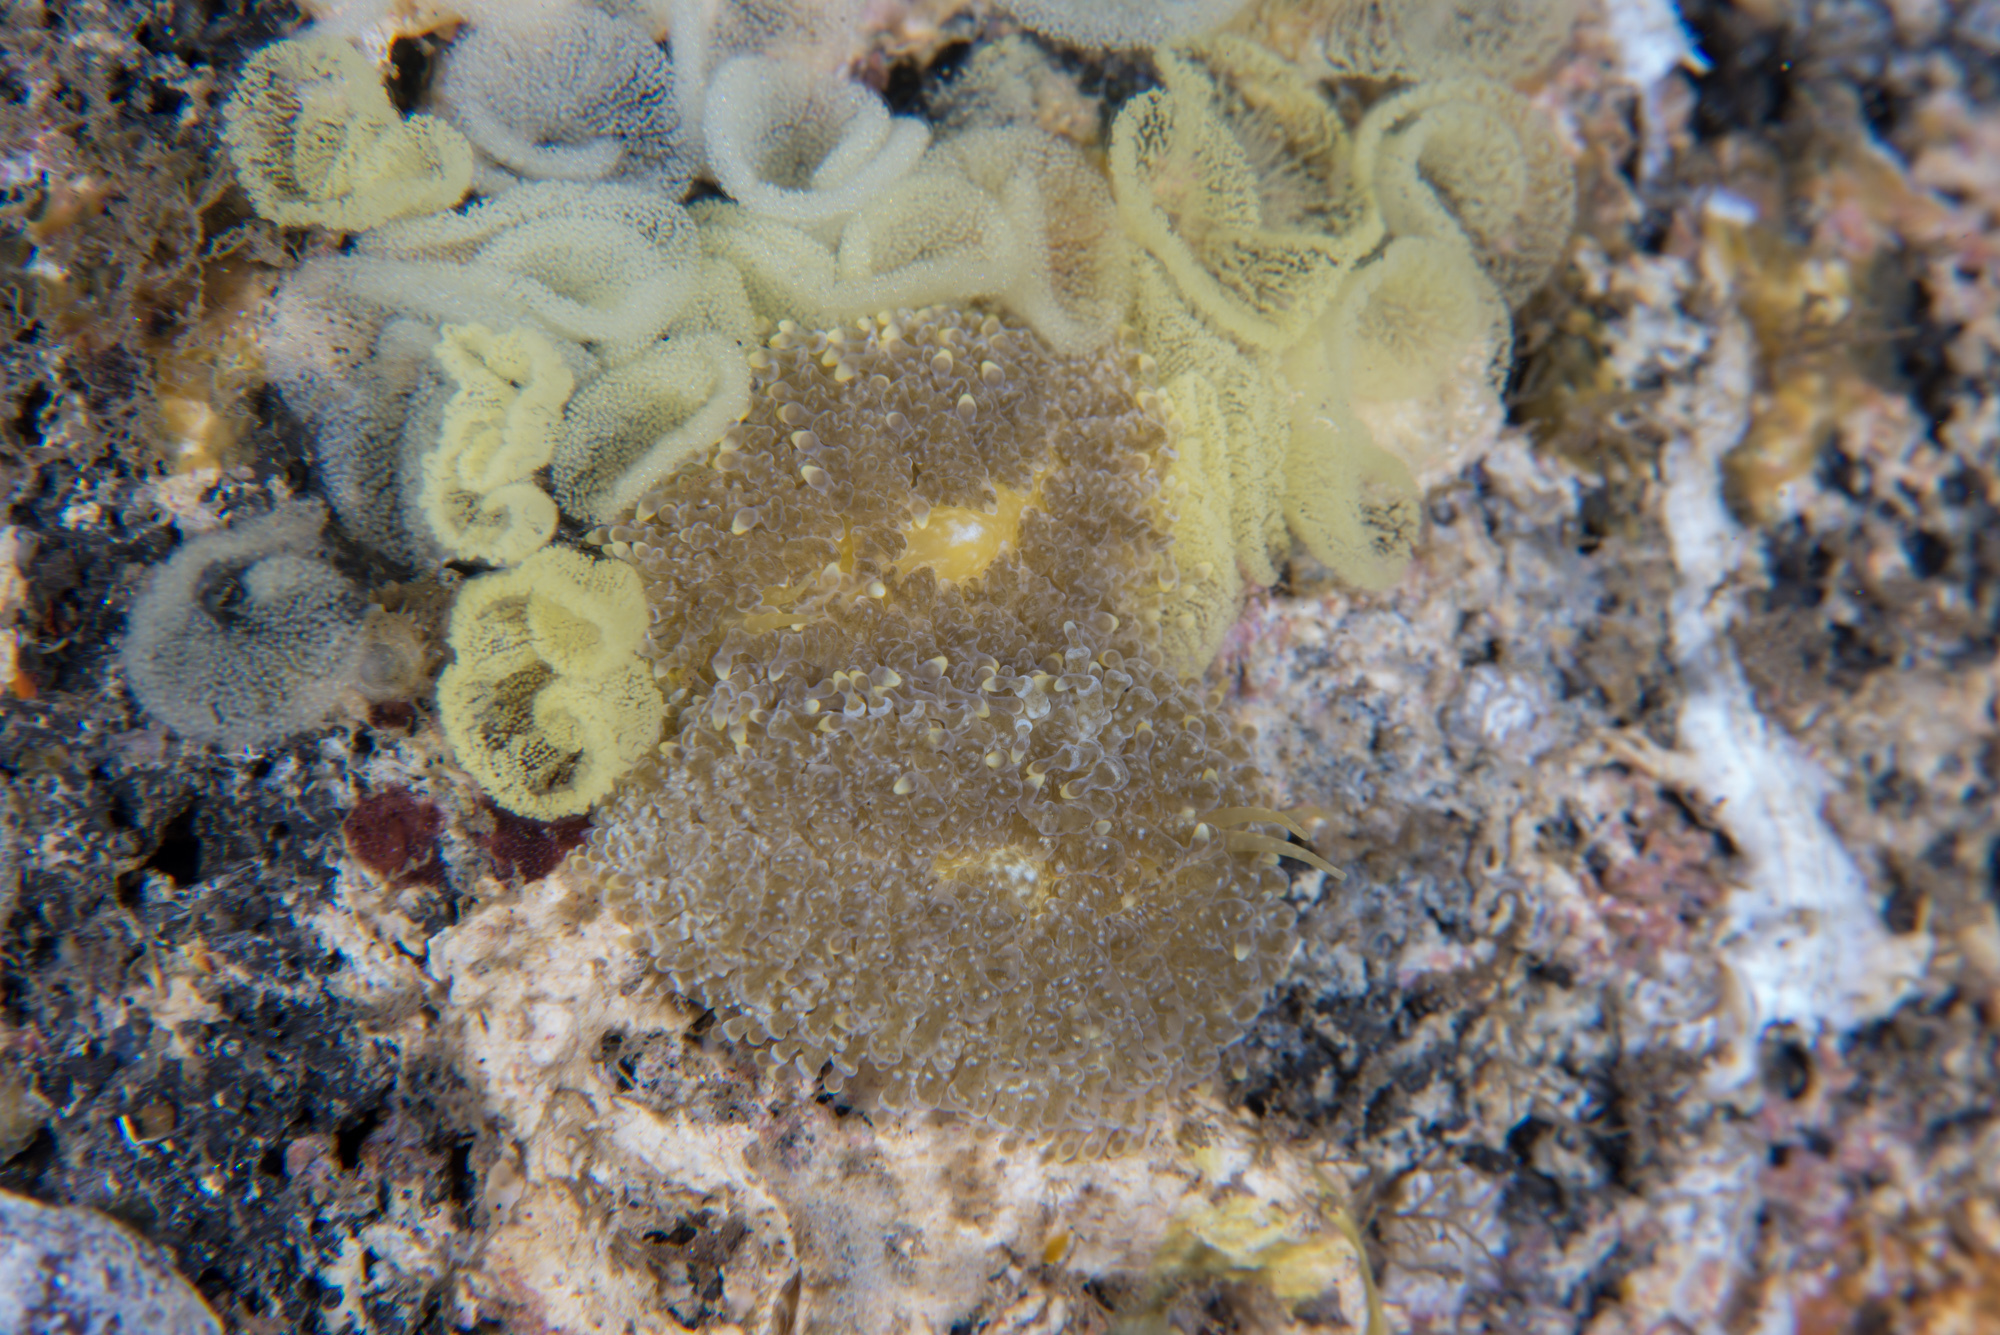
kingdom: Animalia
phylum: Mollusca
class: Gastropoda
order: Nudibranchia
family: Trinchesiidae
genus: Phestilla
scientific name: Phestilla lugubris
